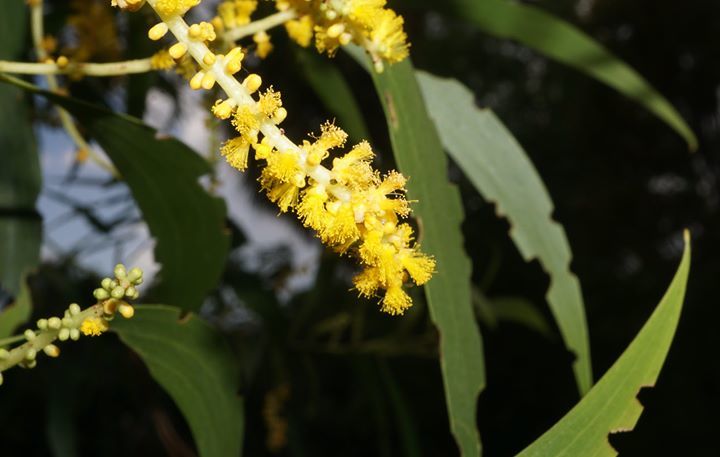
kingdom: Plantae
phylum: Tracheophyta
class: Magnoliopsida
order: Fabales
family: Fabaceae
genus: Acacia
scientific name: Acacia auriculiformis
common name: Earleaf acacia
